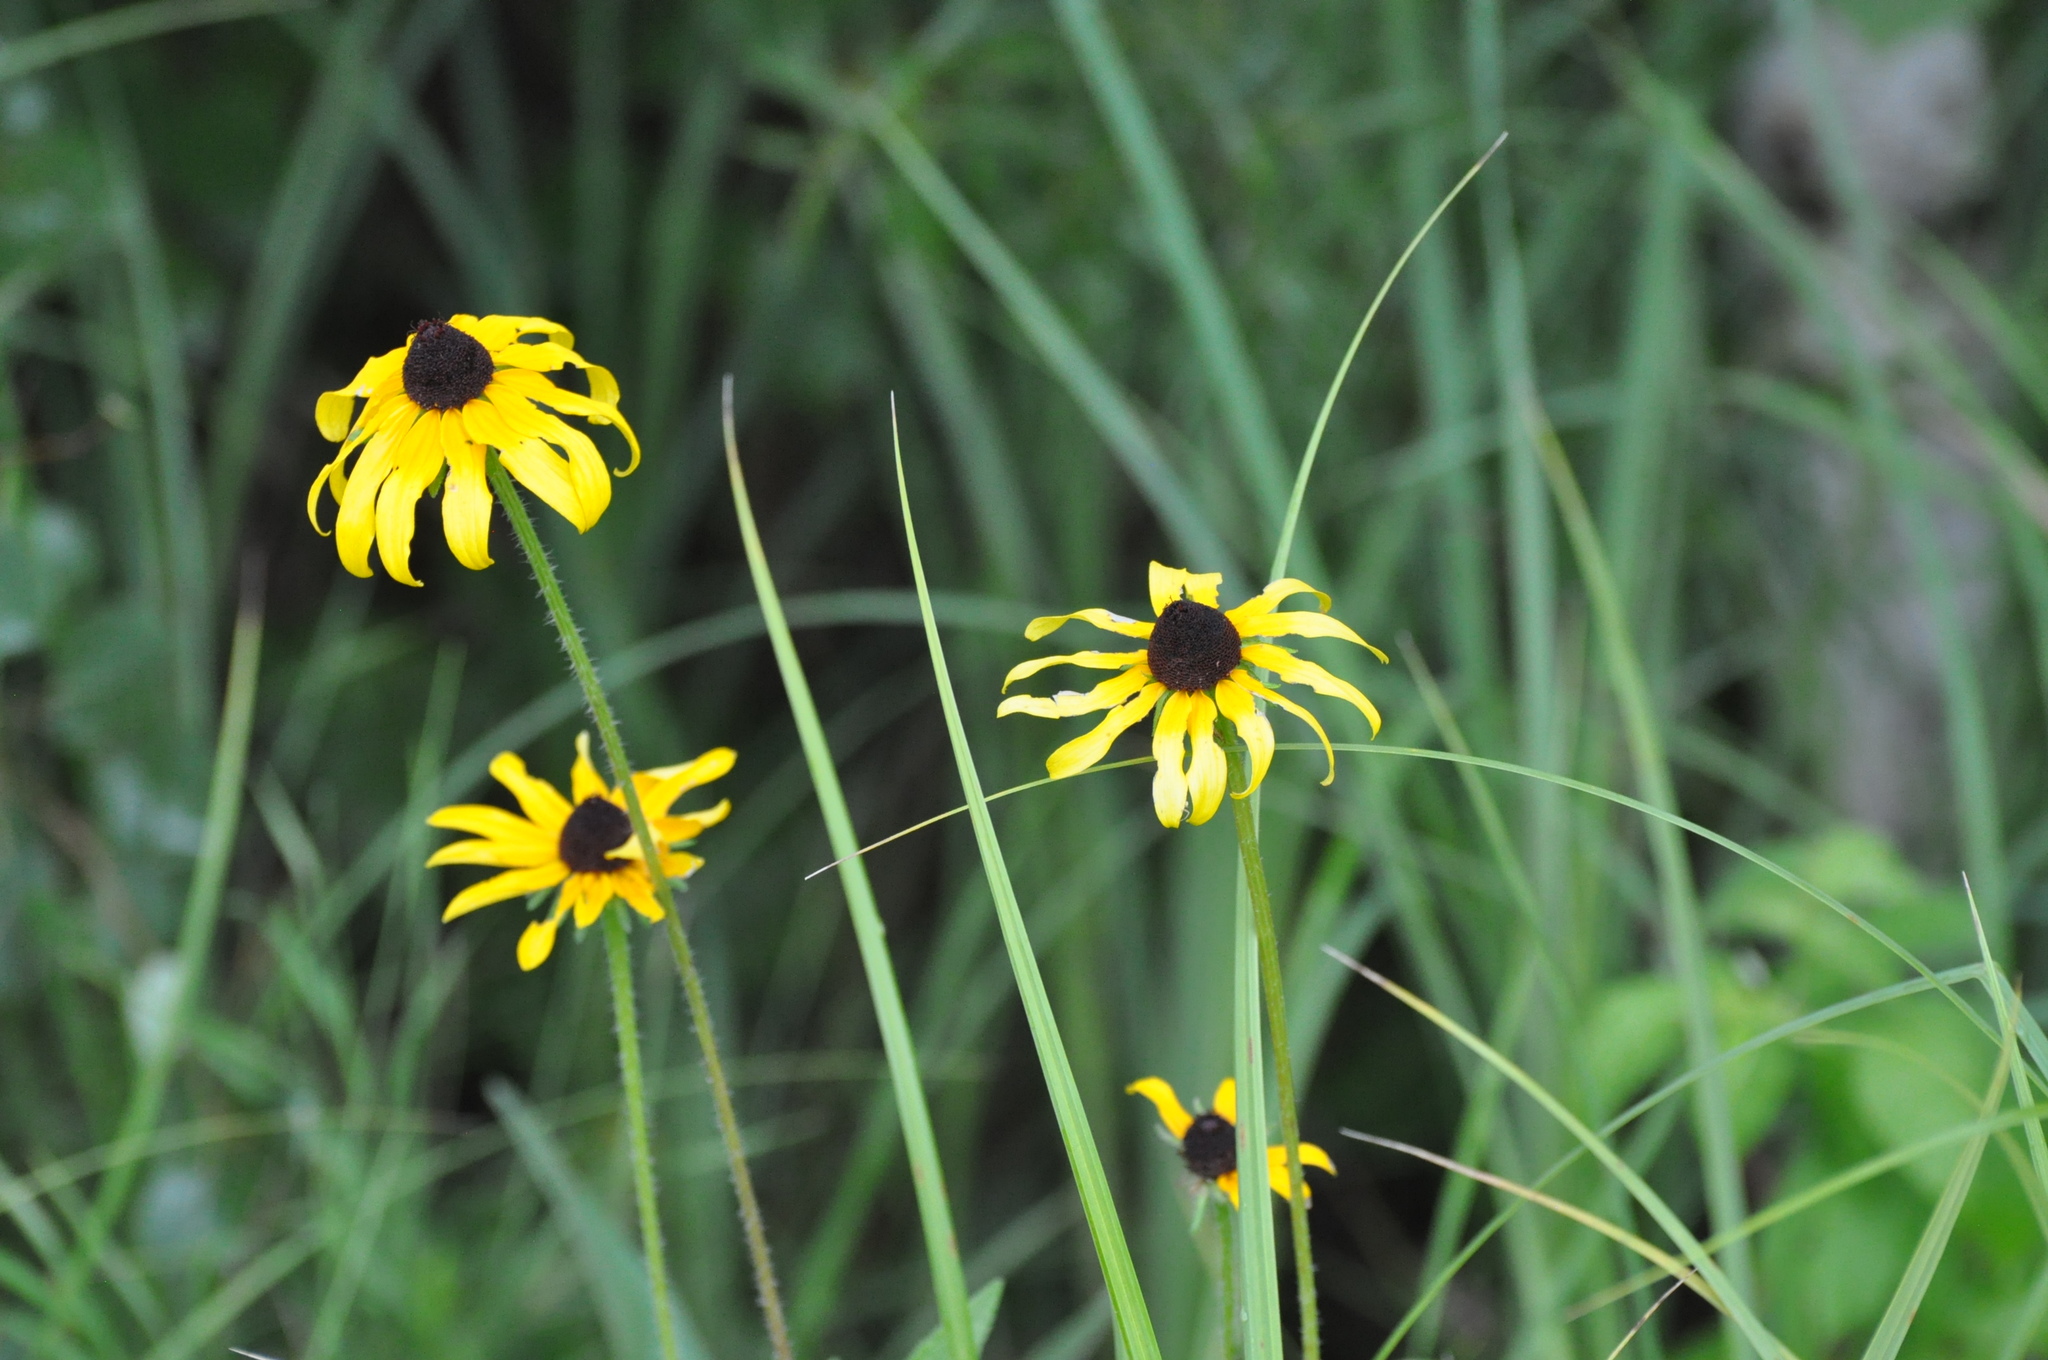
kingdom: Plantae
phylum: Tracheophyta
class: Magnoliopsida
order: Asterales
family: Asteraceae
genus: Rudbeckia
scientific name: Rudbeckia hirta
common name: Black-eyed-susan
